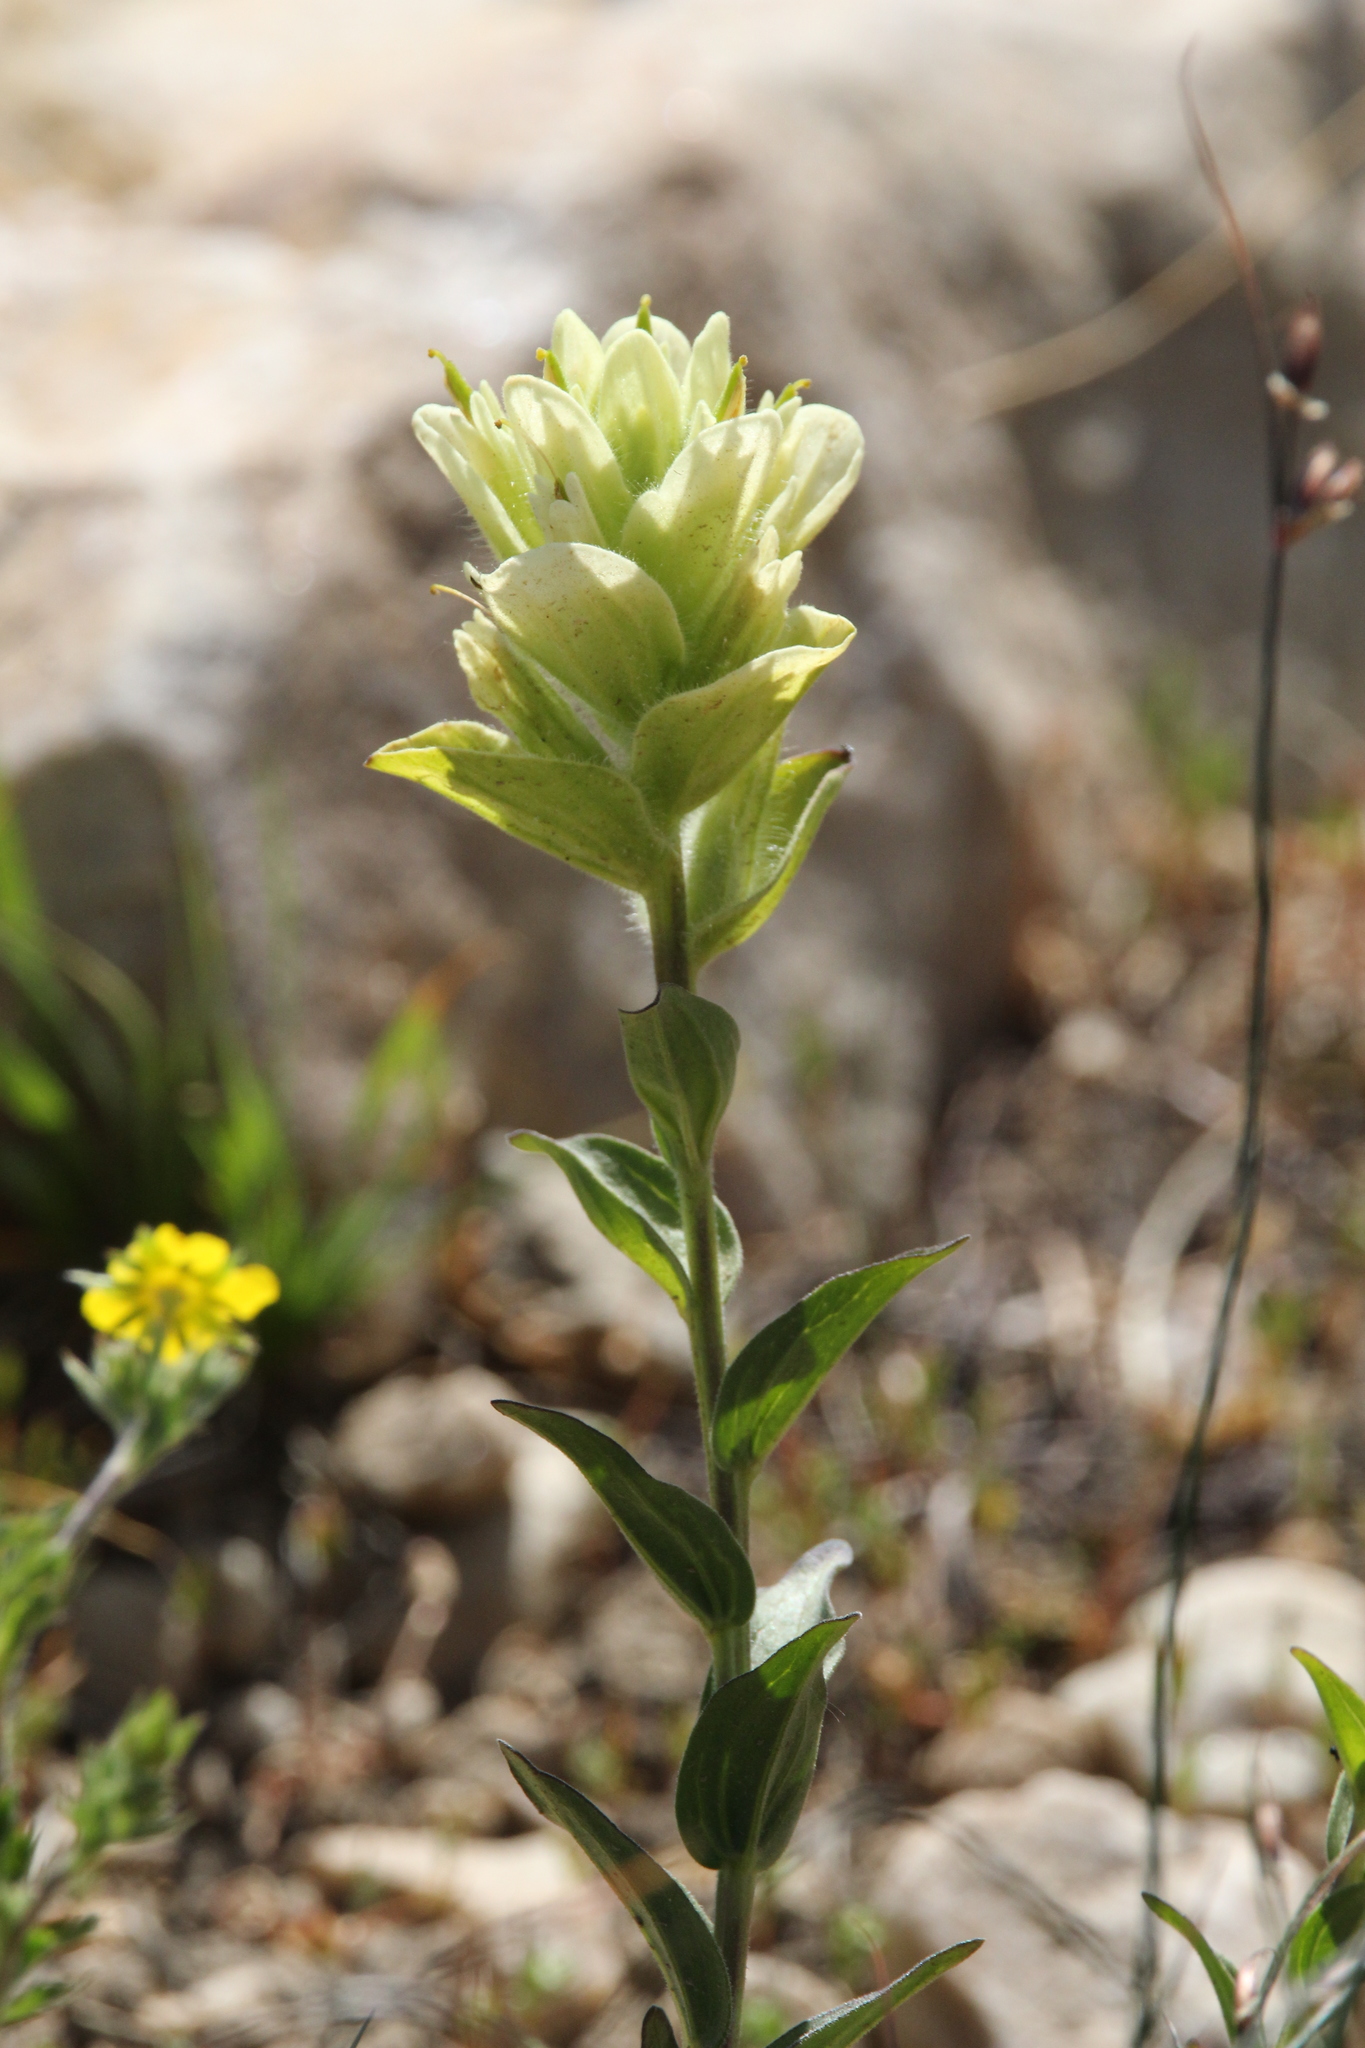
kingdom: Plantae
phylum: Tracheophyta
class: Magnoliopsida
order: Lamiales
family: Orobanchaceae
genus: Castilleja
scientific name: Castilleja occidentalis
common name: Western paintbrush
